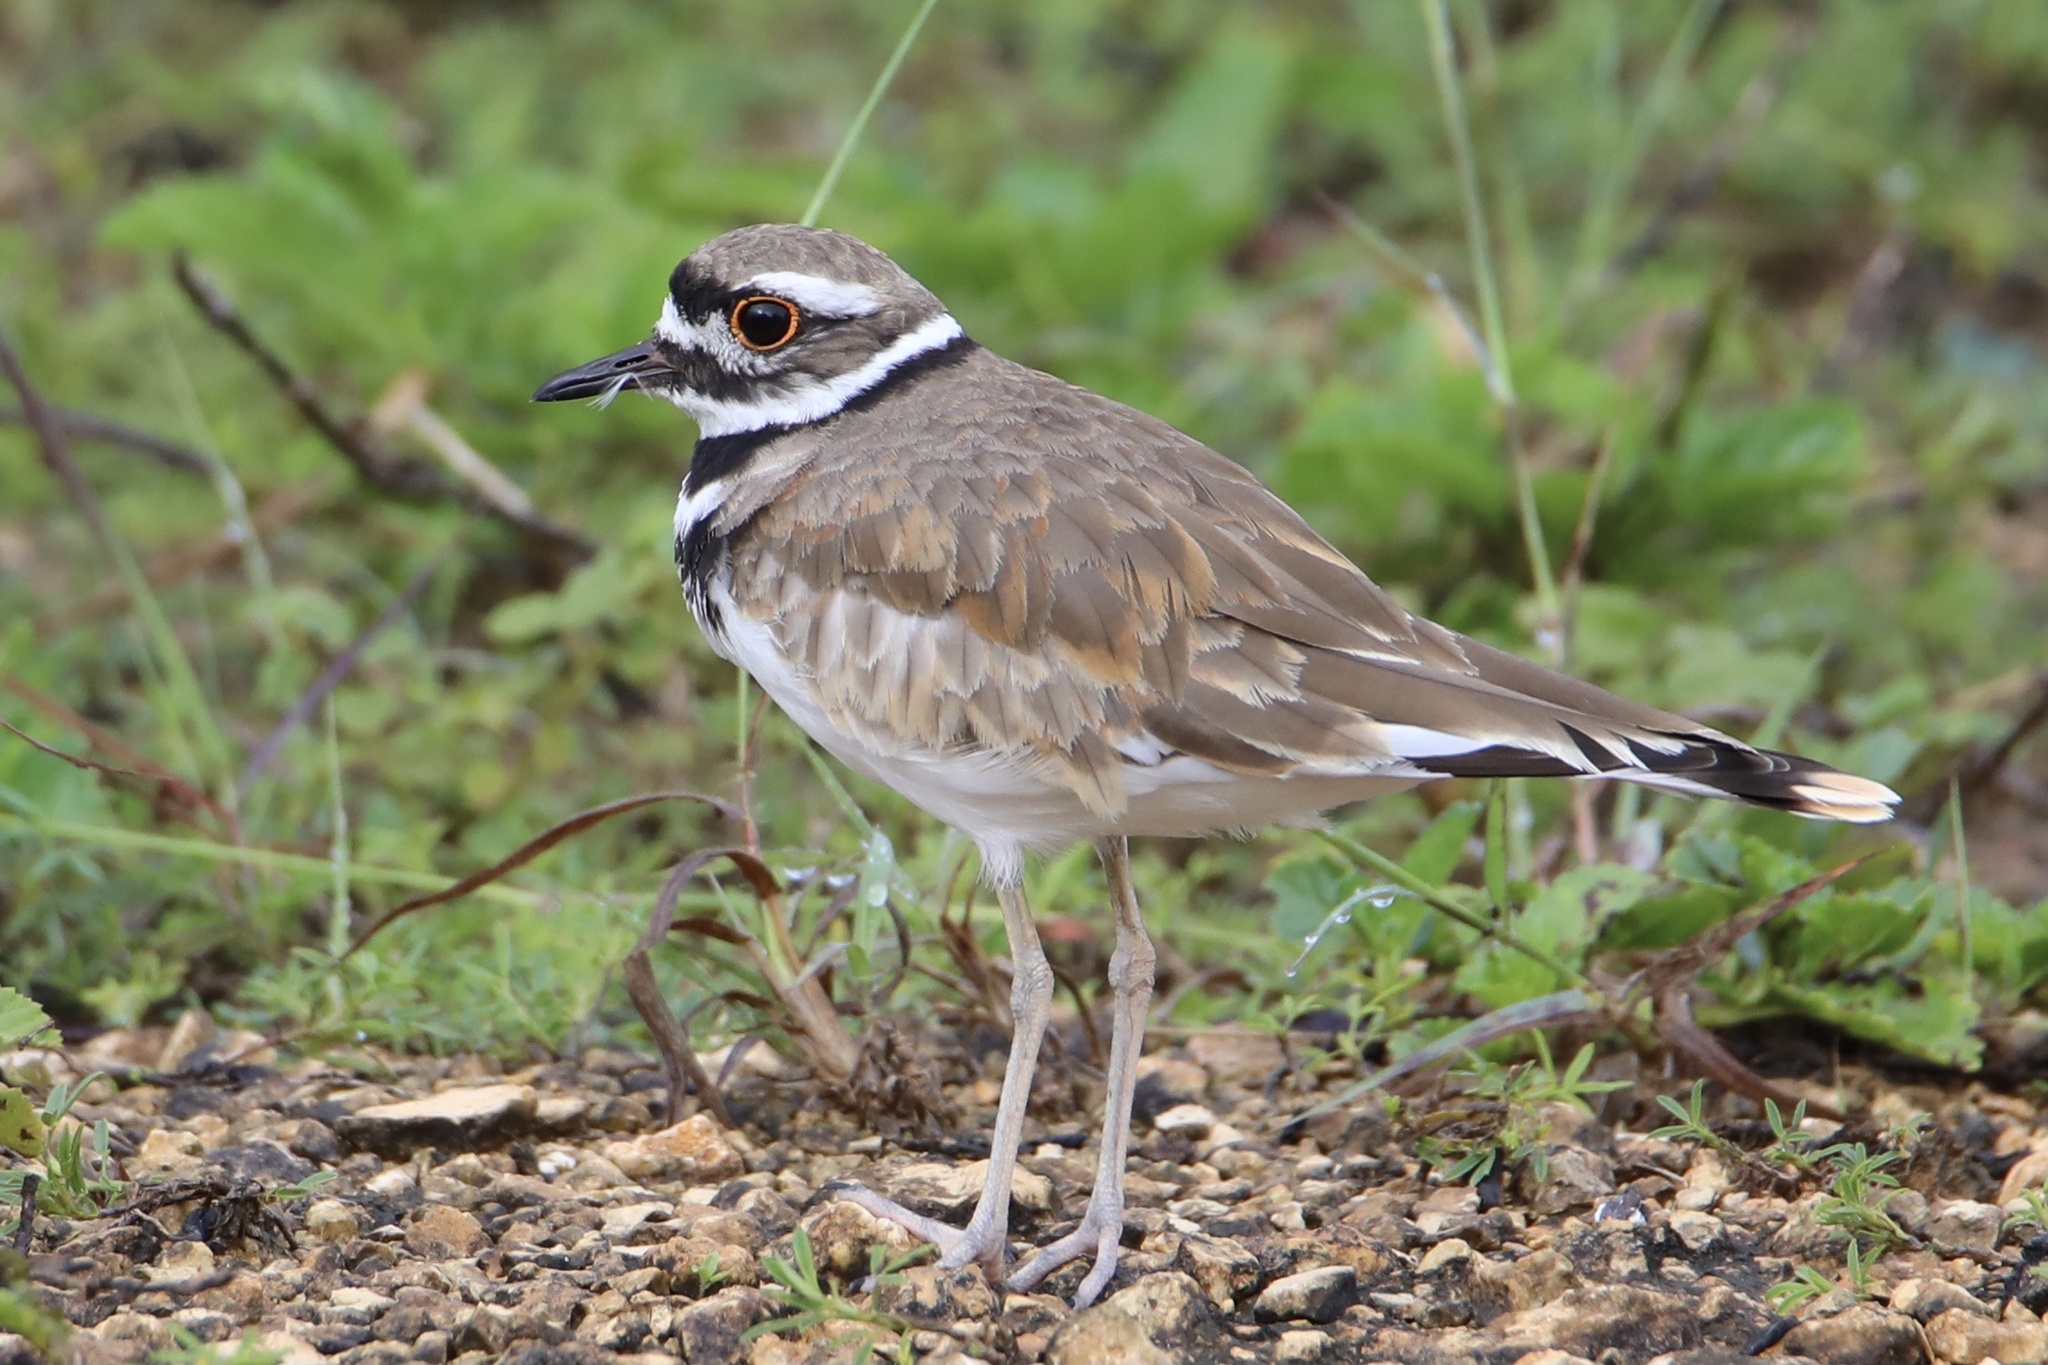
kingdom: Animalia
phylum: Chordata
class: Aves
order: Charadriiformes
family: Charadriidae
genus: Charadrius
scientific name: Charadrius vociferus
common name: Killdeer
